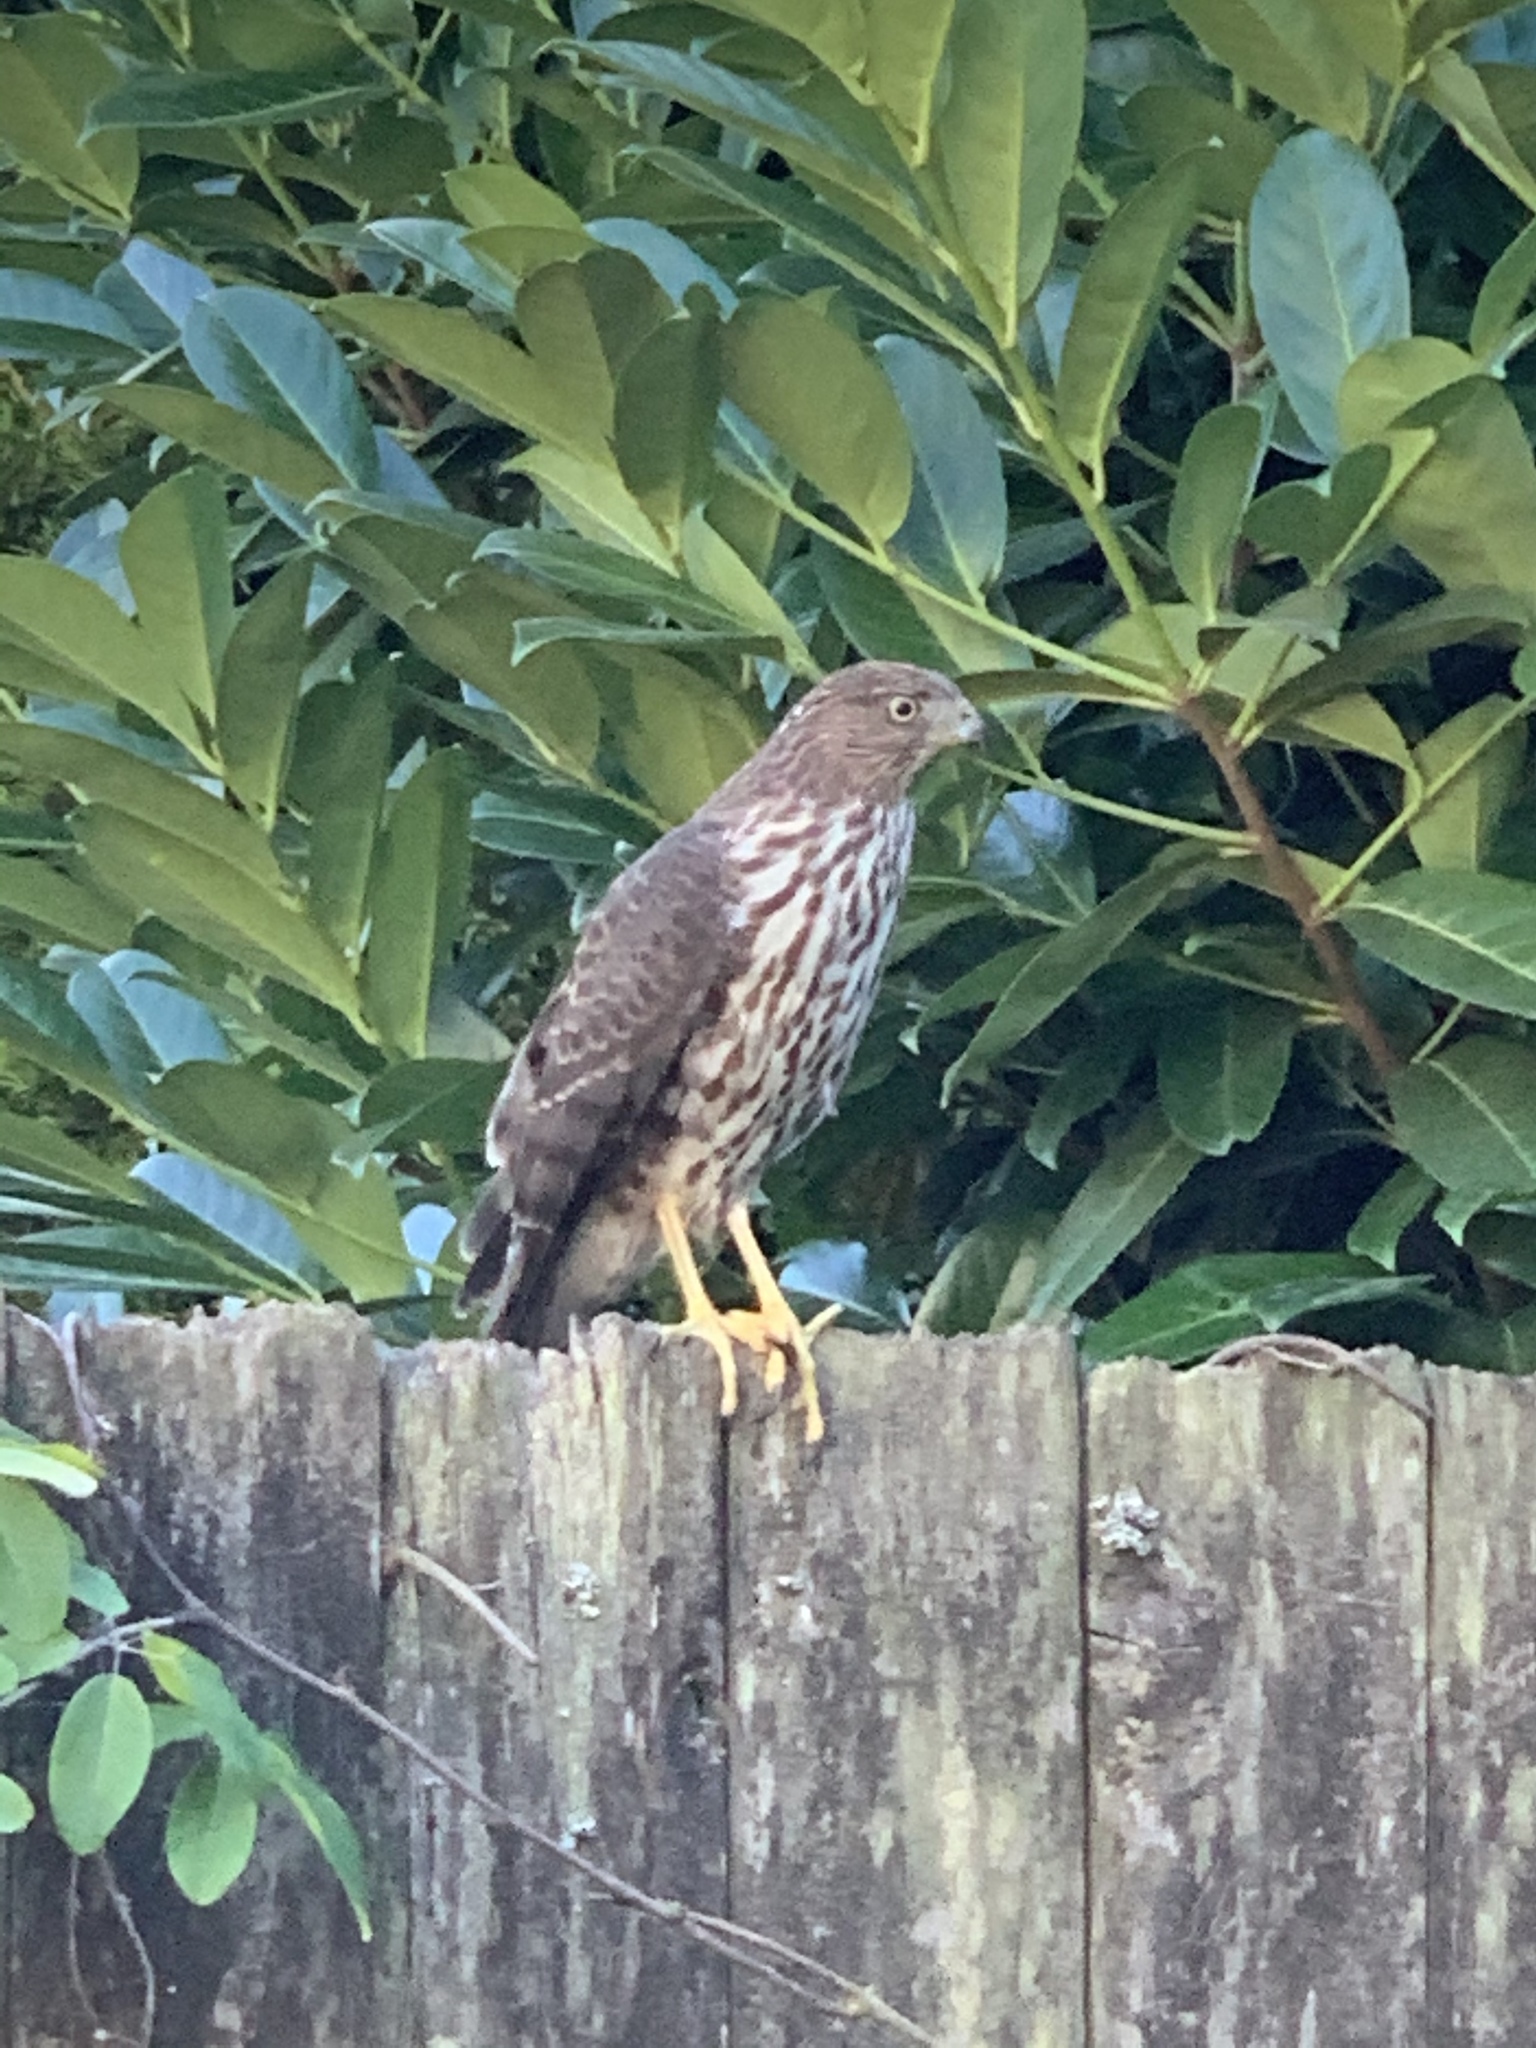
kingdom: Animalia
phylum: Chordata
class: Aves
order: Accipitriformes
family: Accipitridae
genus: Accipiter
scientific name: Accipiter cooperii
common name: Cooper's hawk
